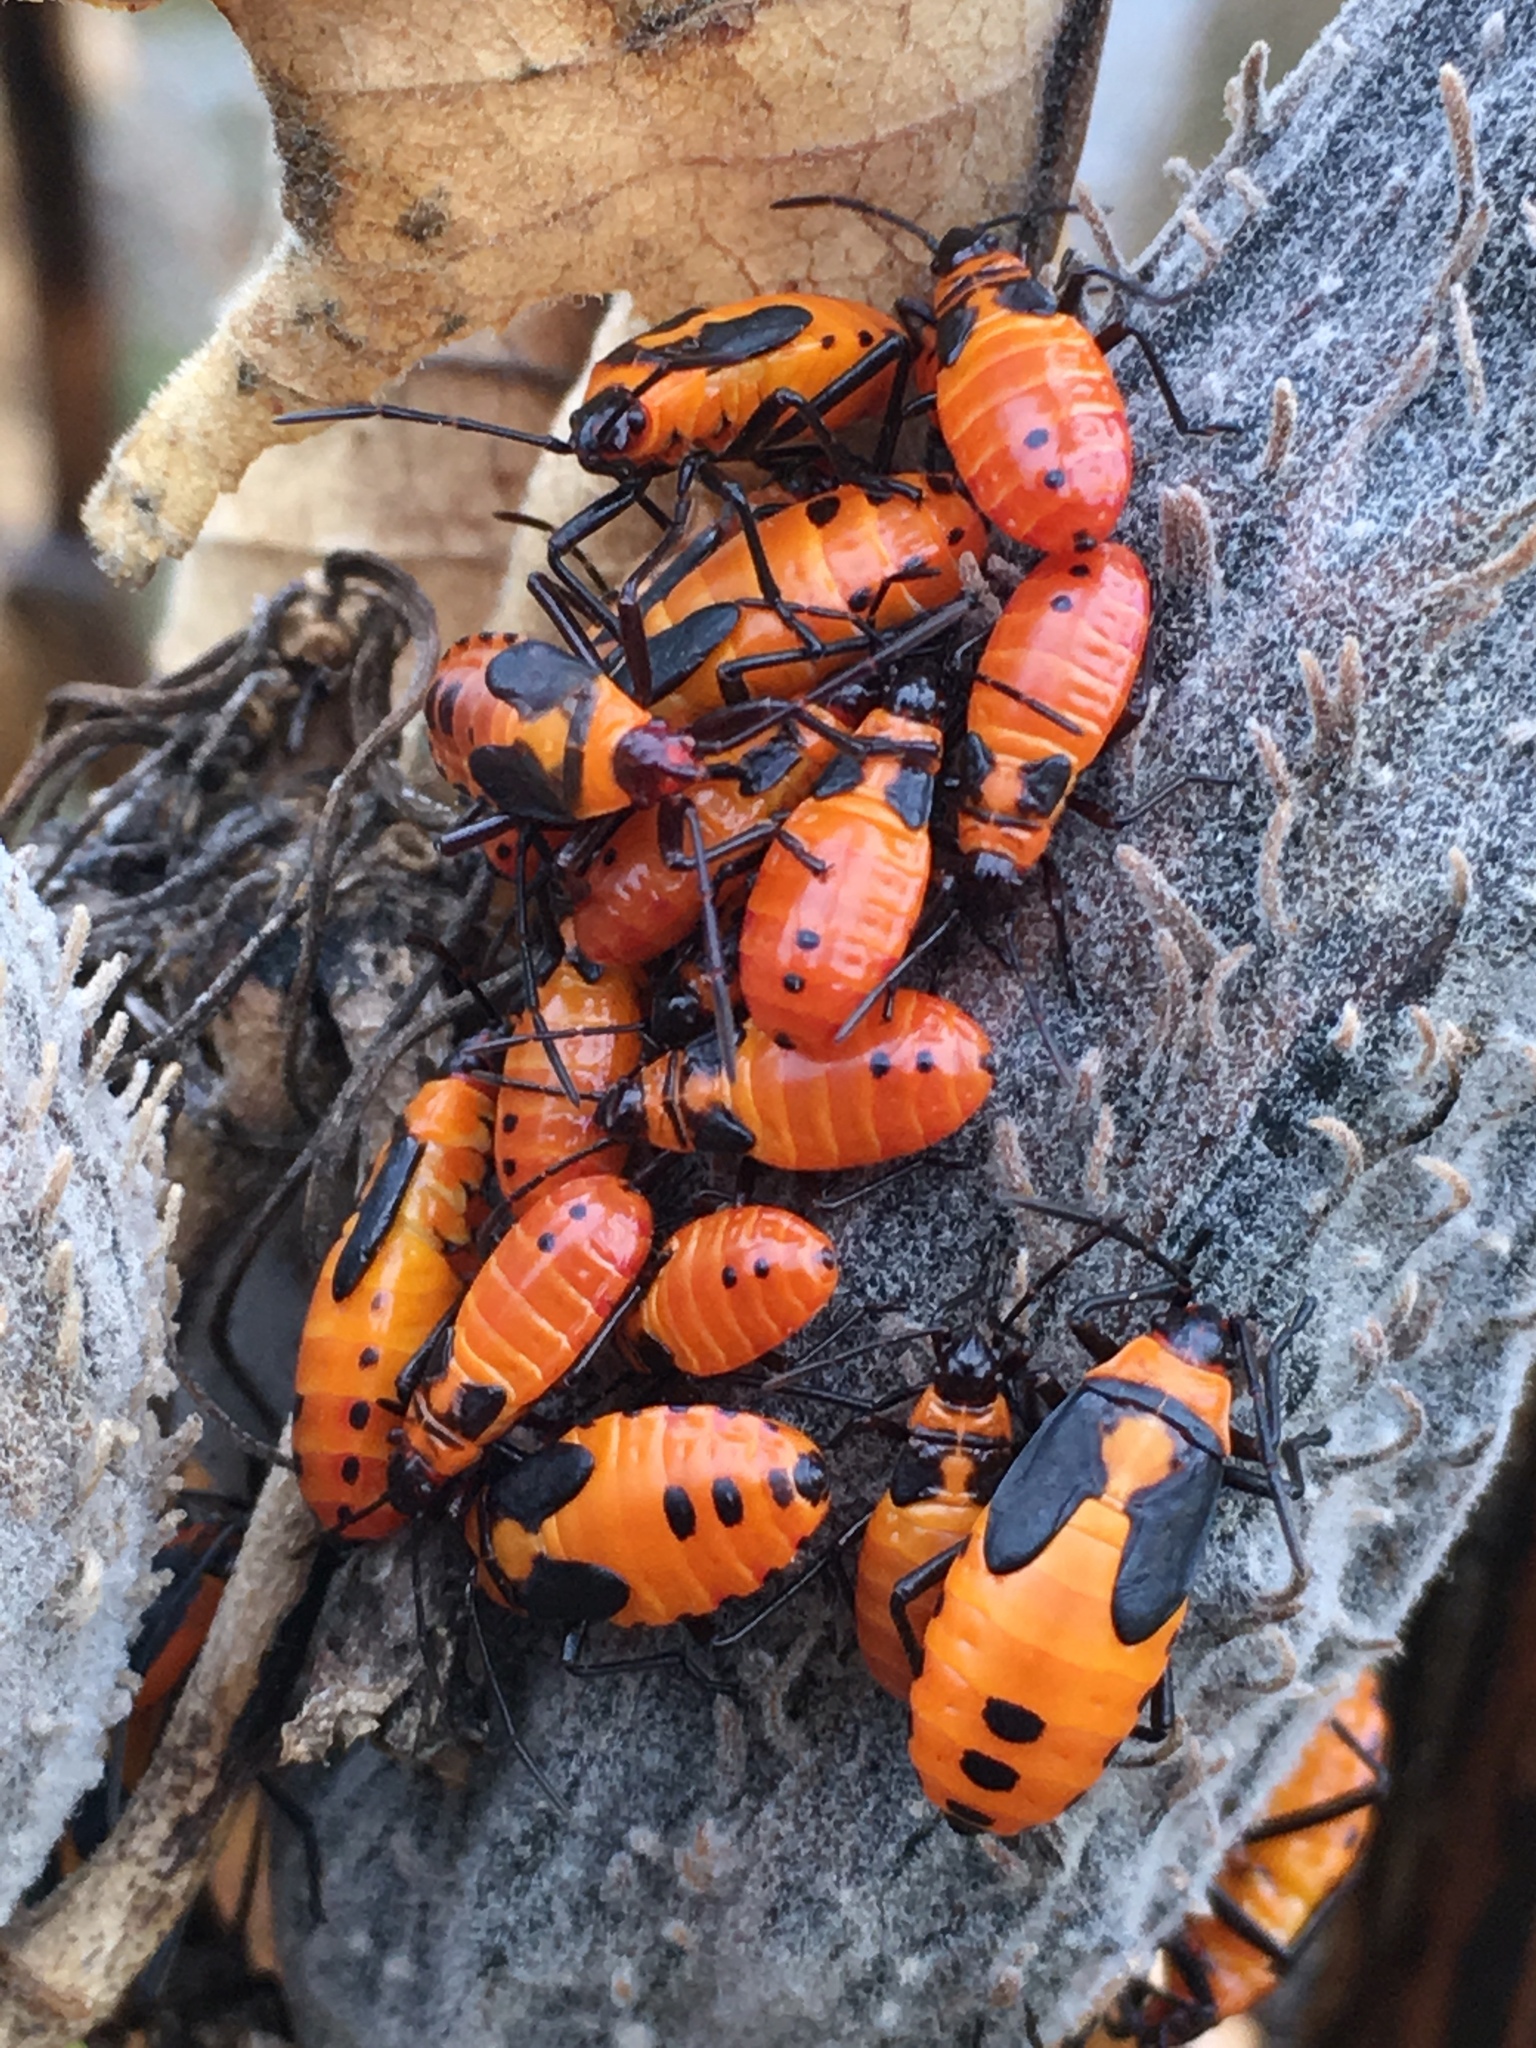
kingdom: Animalia
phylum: Arthropoda
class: Insecta
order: Hemiptera
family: Lygaeidae
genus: Oncopeltus
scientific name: Oncopeltus fasciatus
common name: Large milkweed bug
